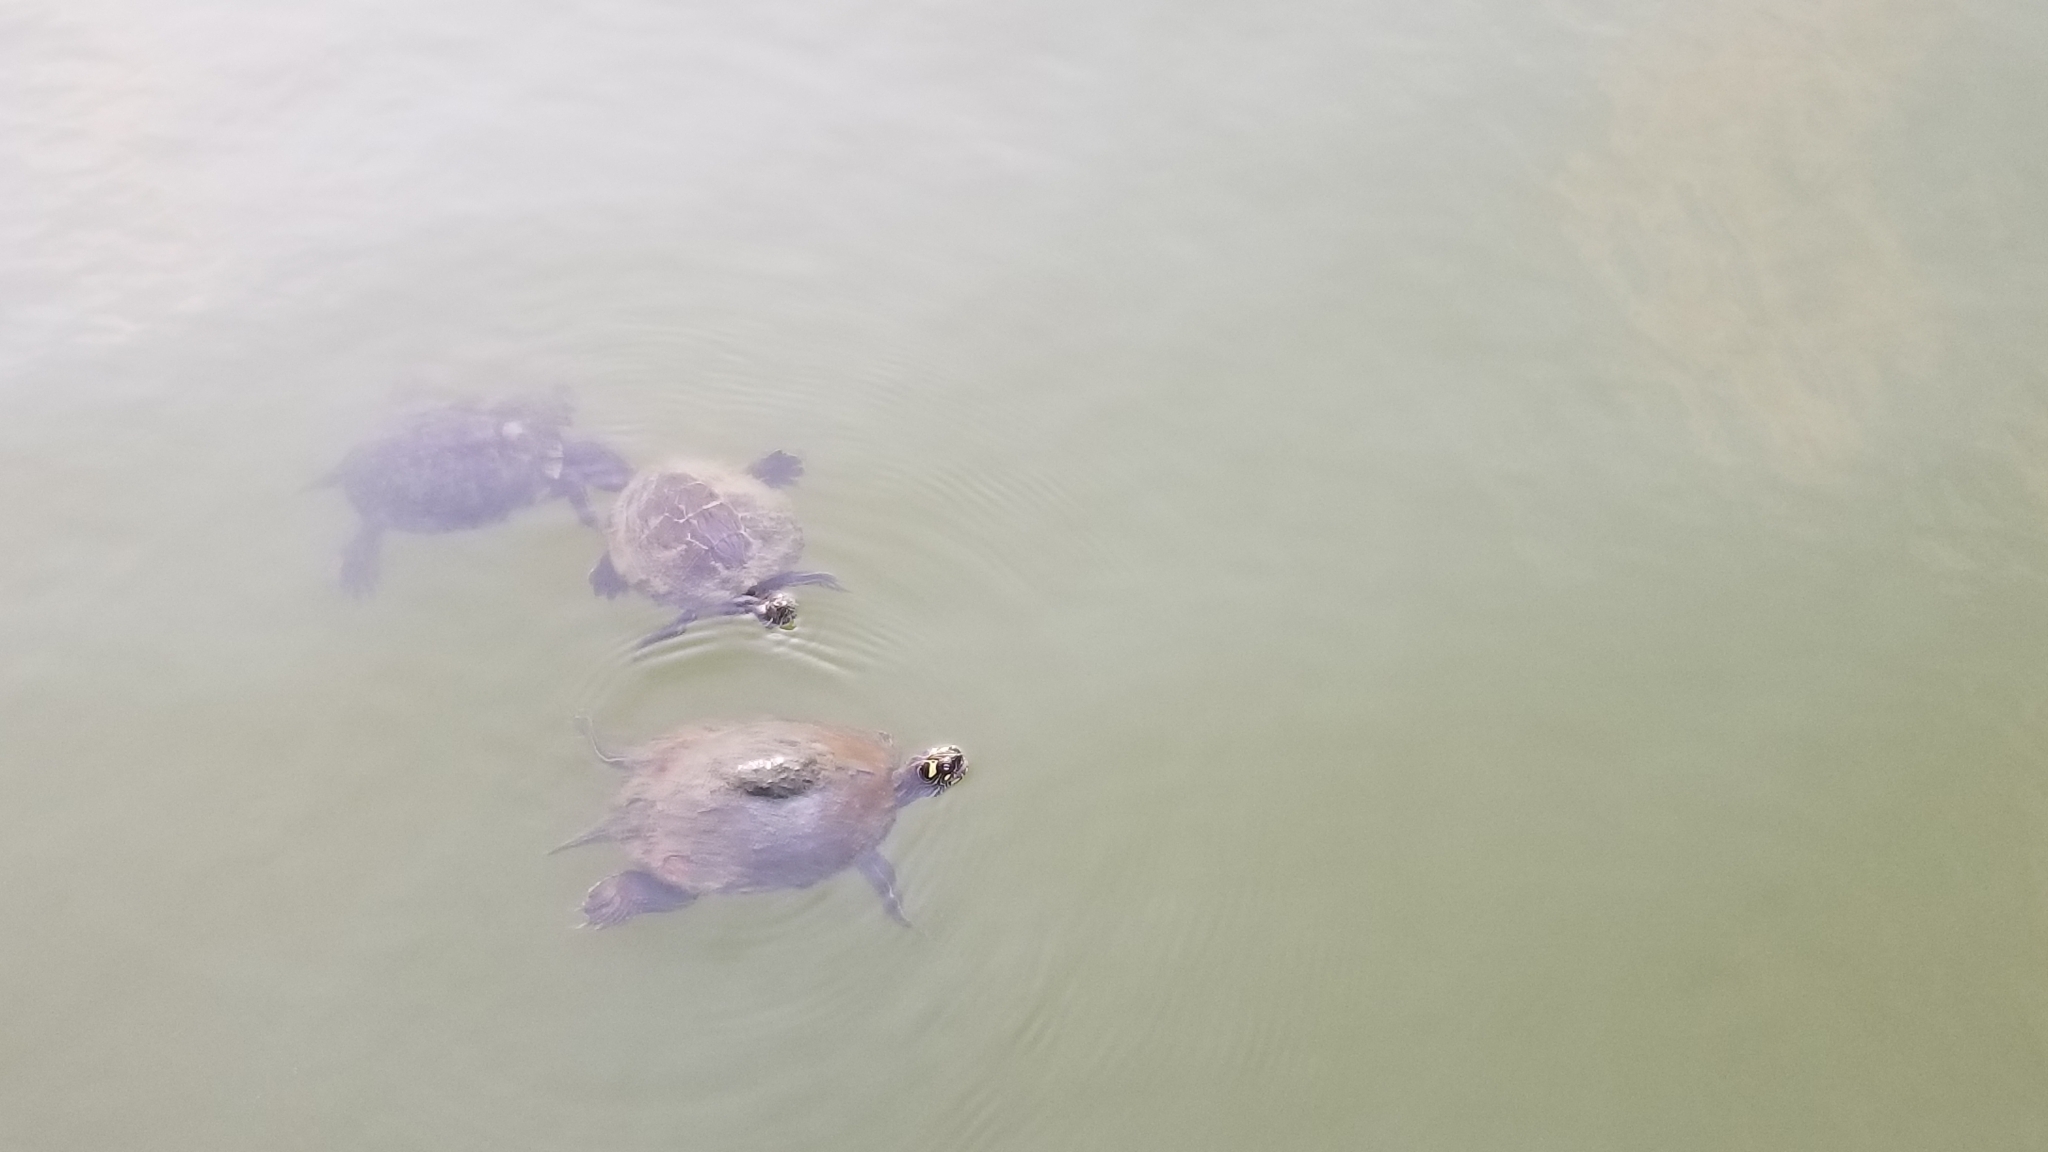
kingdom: Animalia
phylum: Chordata
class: Testudines
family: Emydidae
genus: Trachemys
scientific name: Trachemys scripta
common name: Slider
